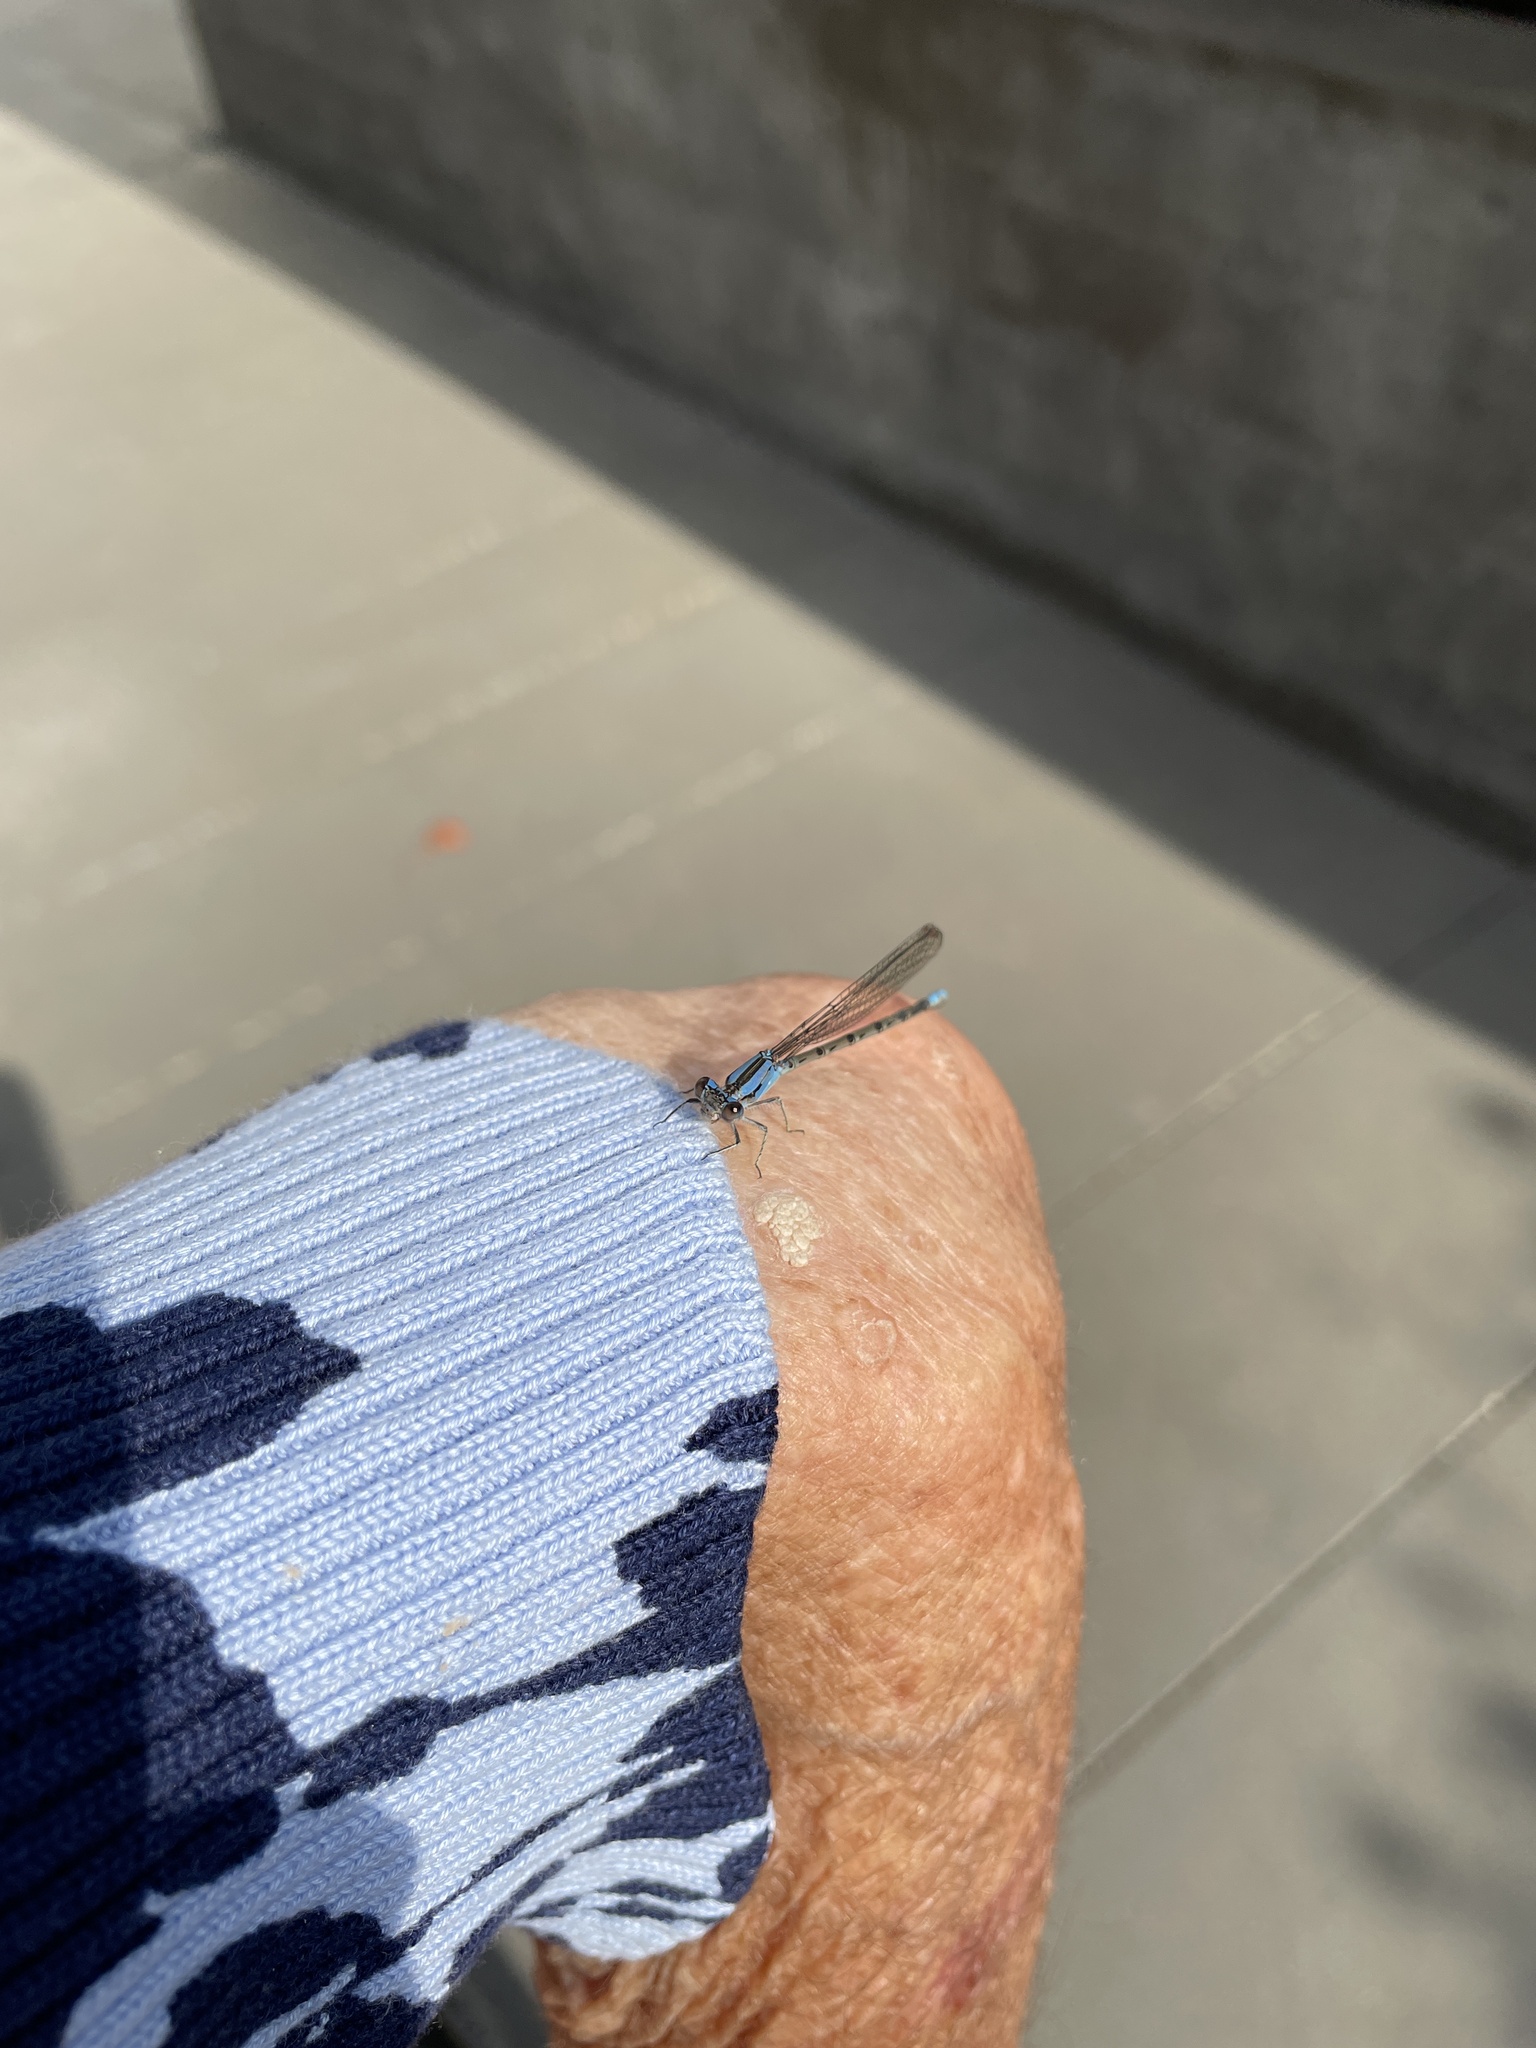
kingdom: Animalia
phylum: Arthropoda
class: Insecta
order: Odonata
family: Coenagrionidae
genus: Argia
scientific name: Argia sedula
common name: Blue-ringed dancer
